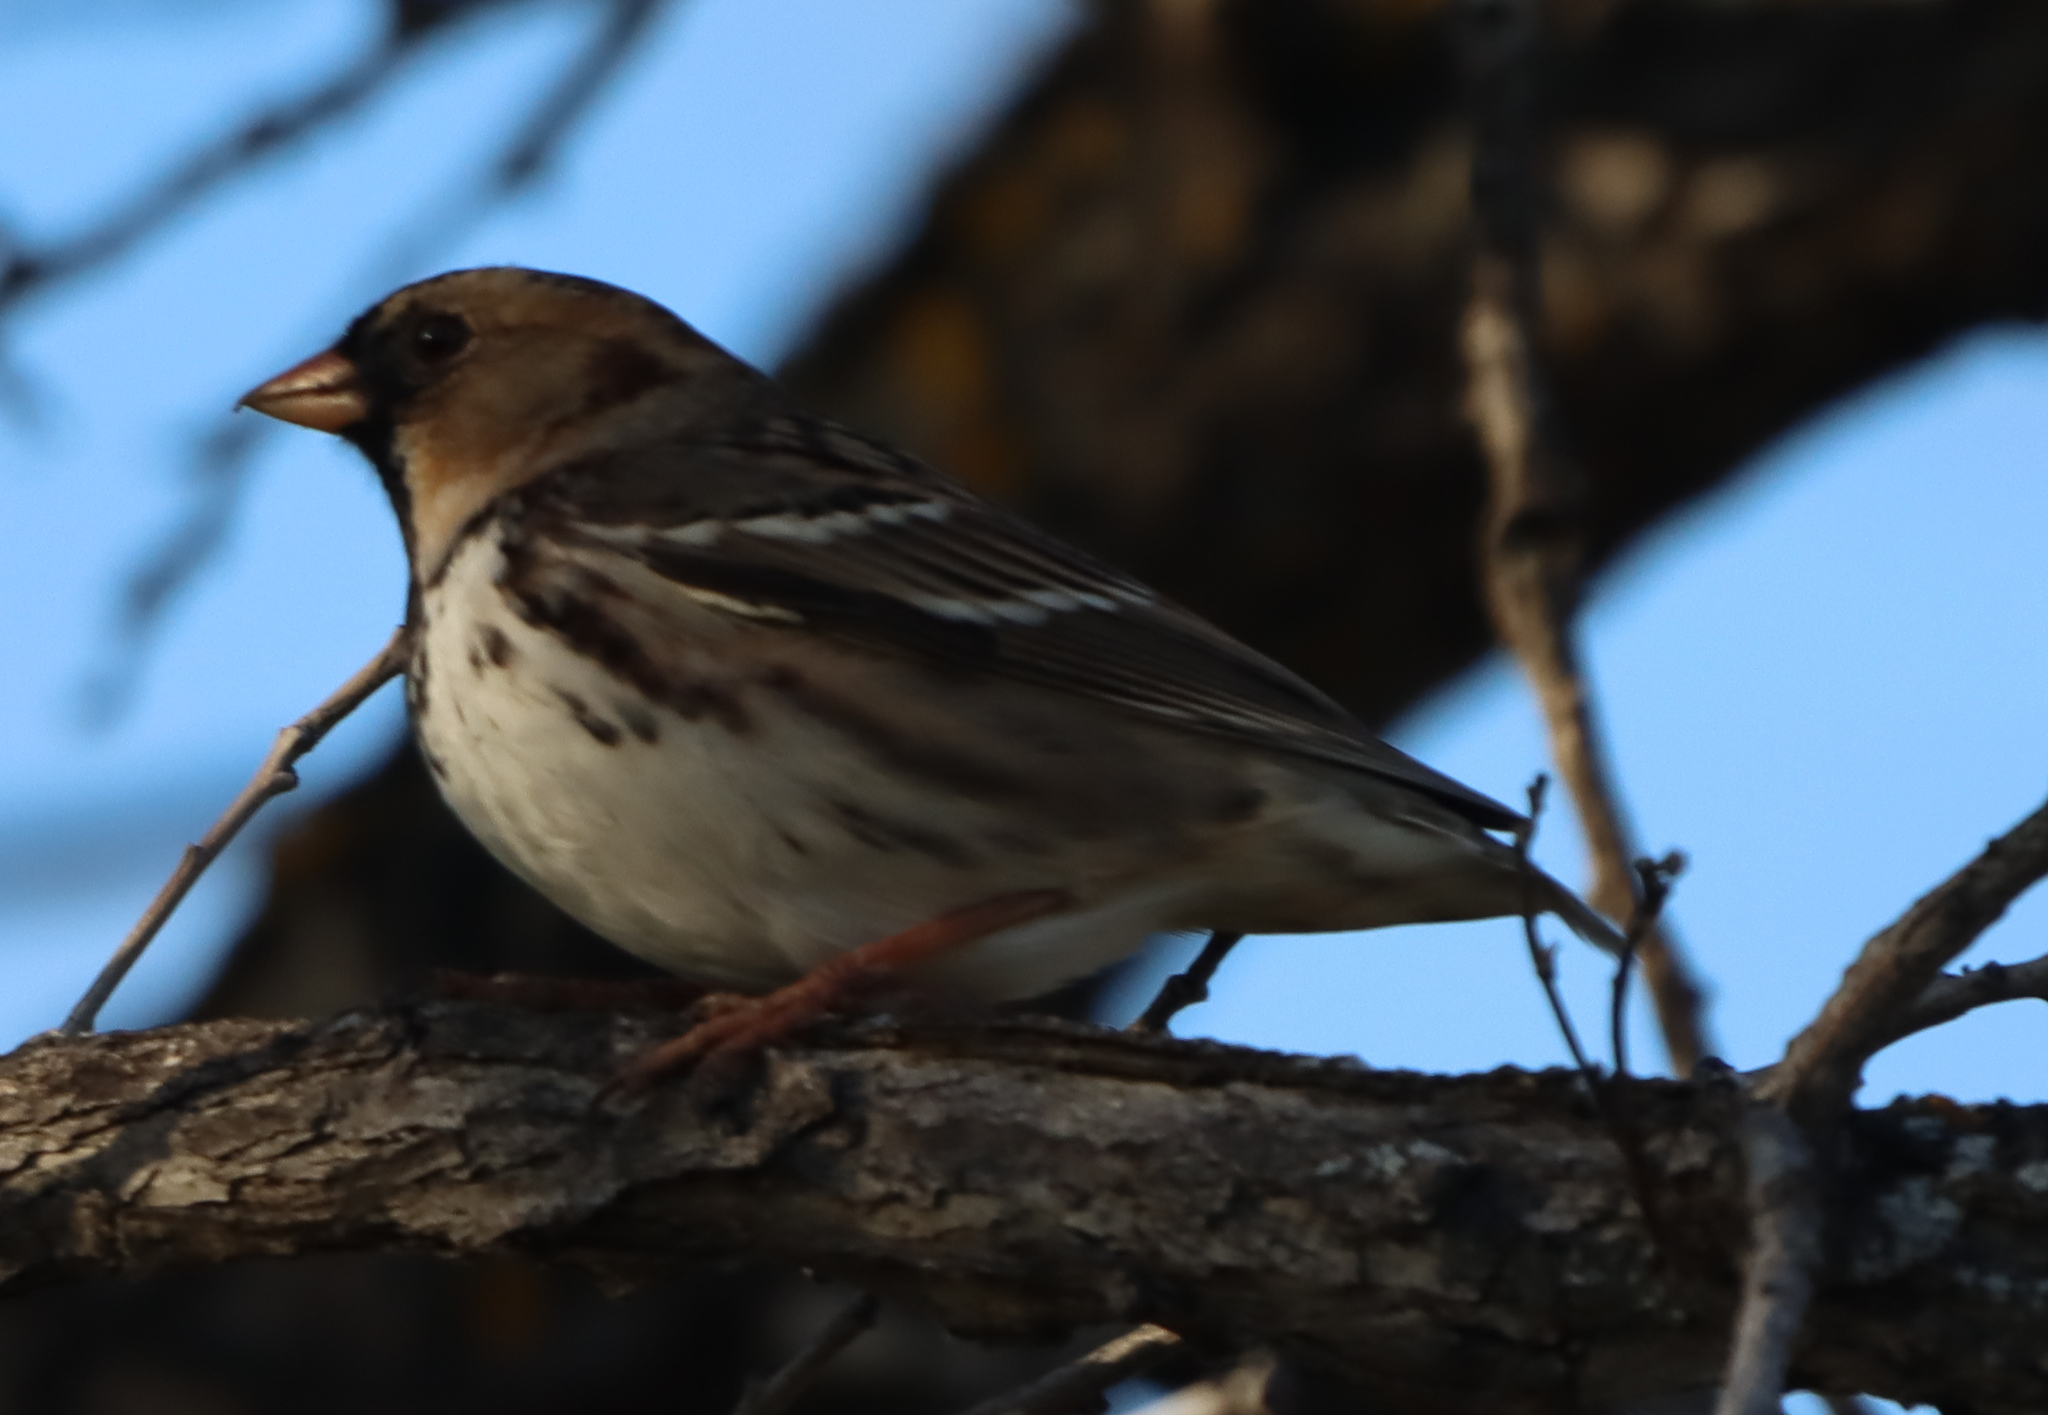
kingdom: Animalia
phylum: Chordata
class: Aves
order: Passeriformes
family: Passerellidae
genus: Zonotrichia
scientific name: Zonotrichia querula
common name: Harris's sparrow
